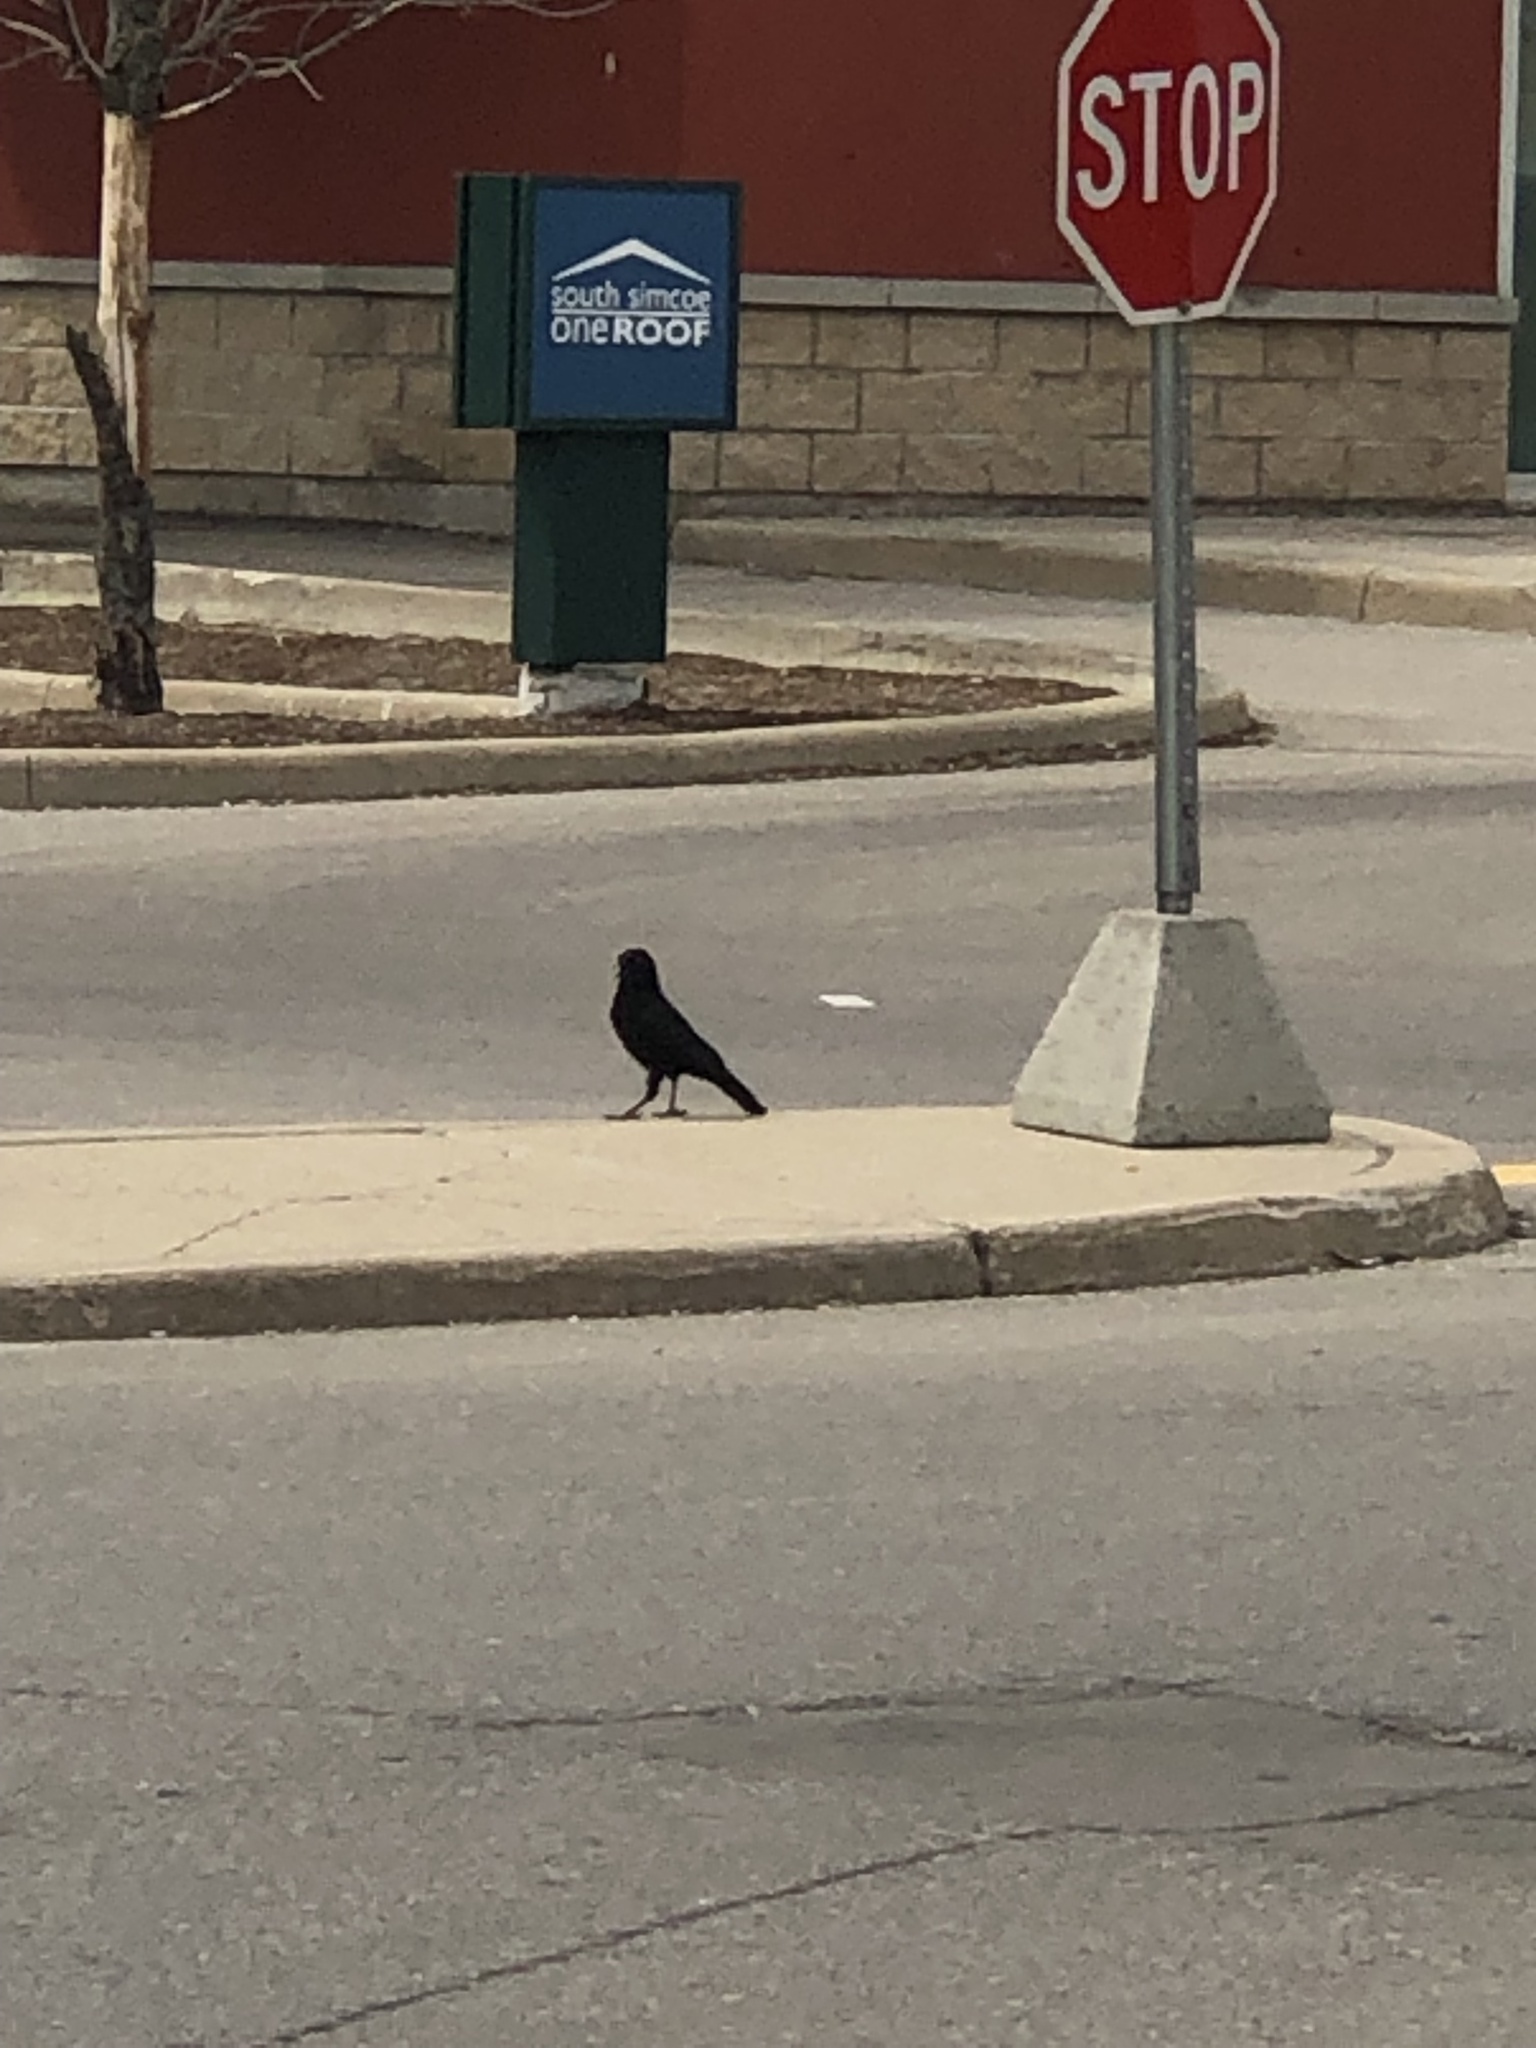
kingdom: Animalia
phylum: Chordata
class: Aves
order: Passeriformes
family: Corvidae
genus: Corvus
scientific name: Corvus brachyrhynchos
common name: American crow
